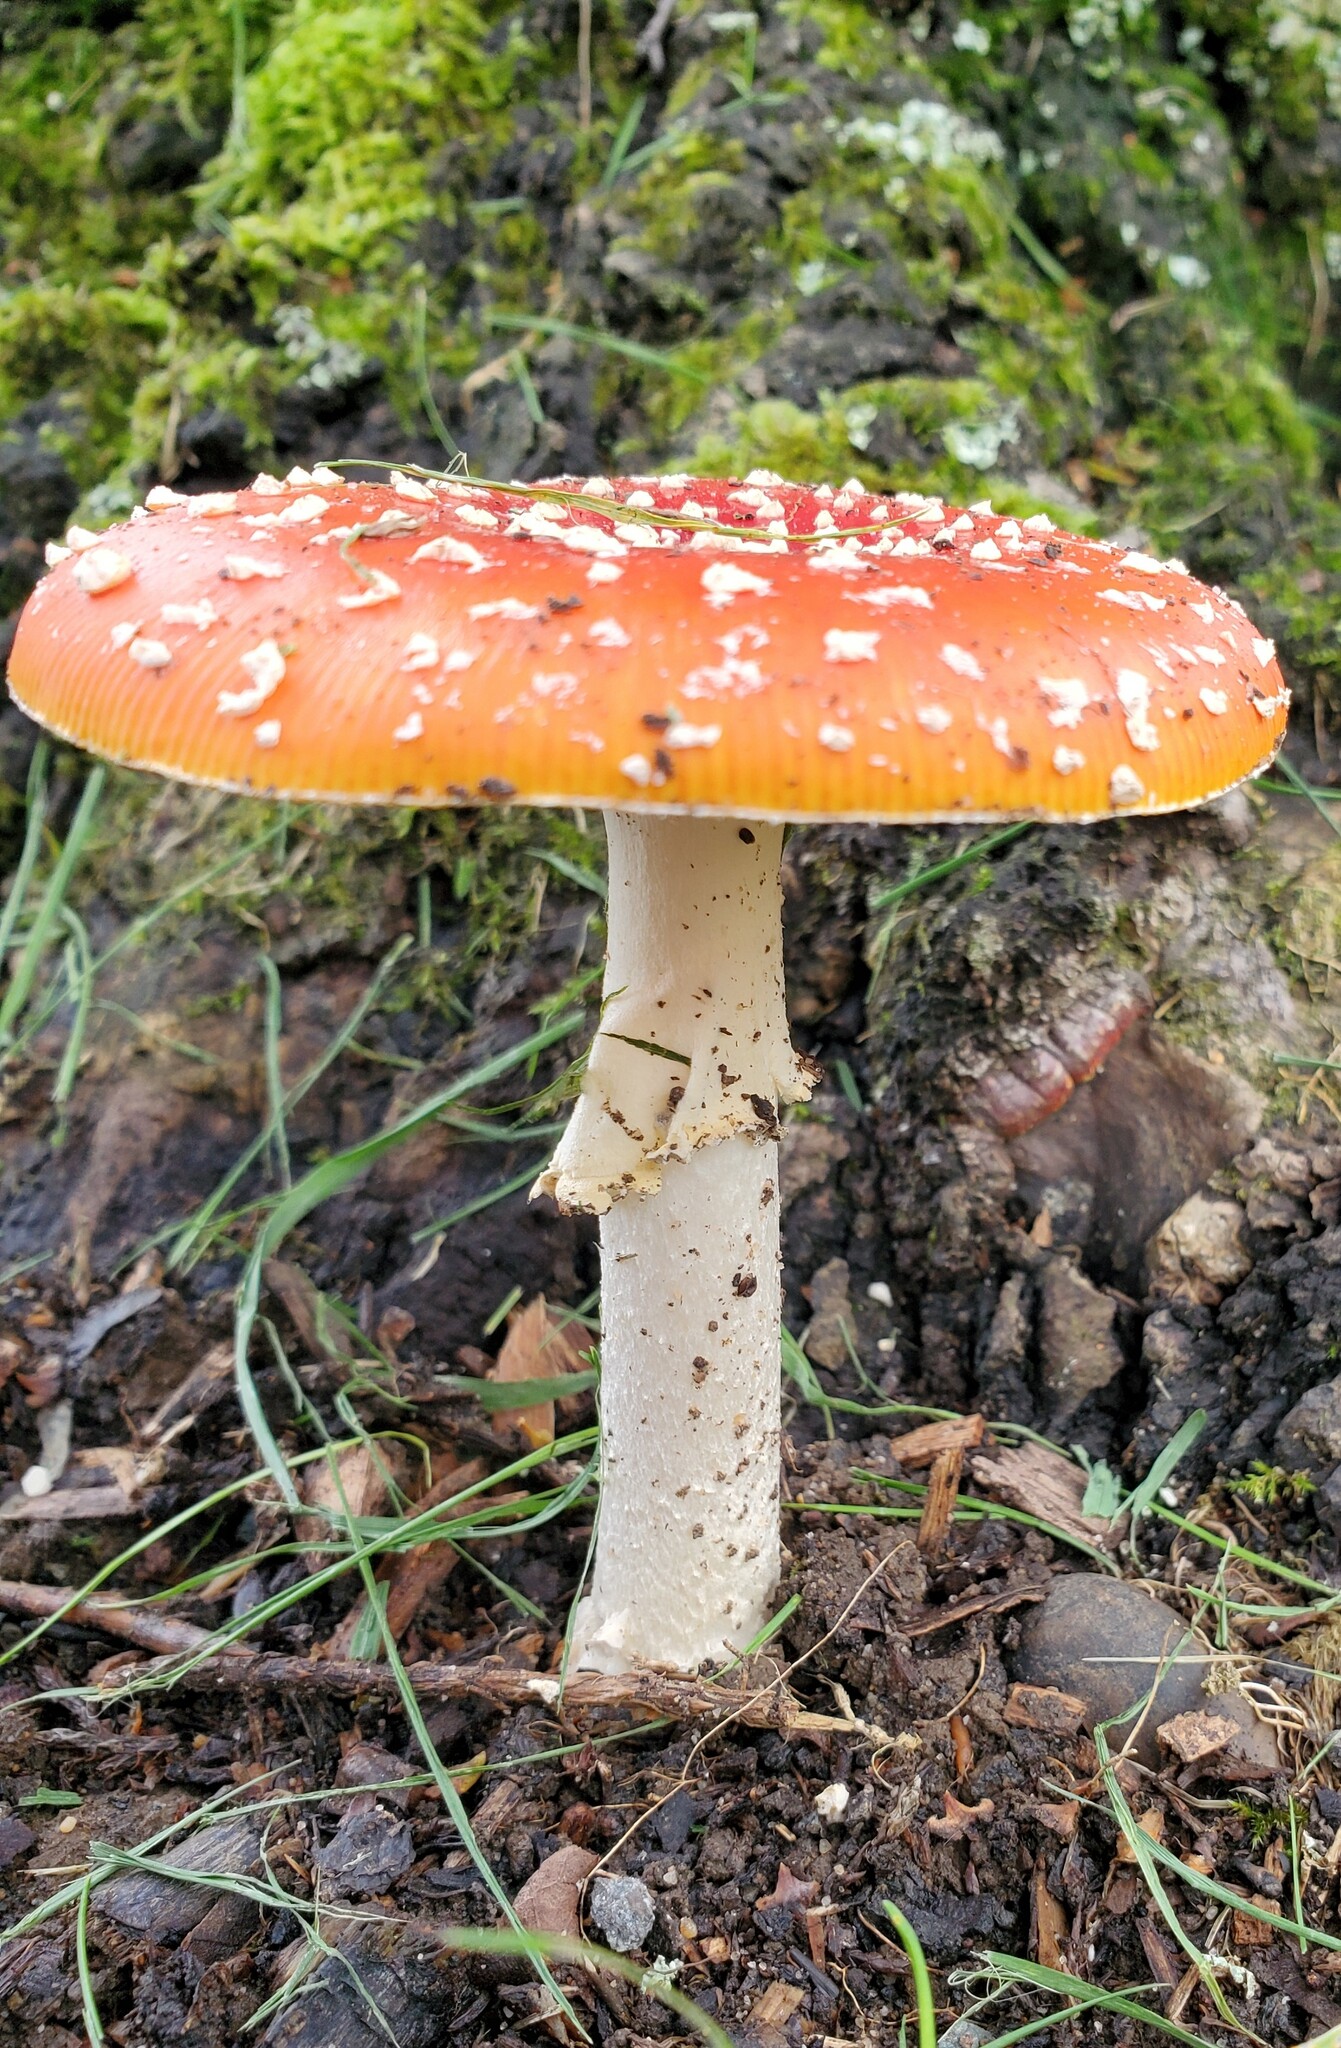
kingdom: Fungi
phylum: Basidiomycota
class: Agaricomycetes
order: Agaricales
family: Amanitaceae
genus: Amanita
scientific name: Amanita muscaria
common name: Fly agaric
